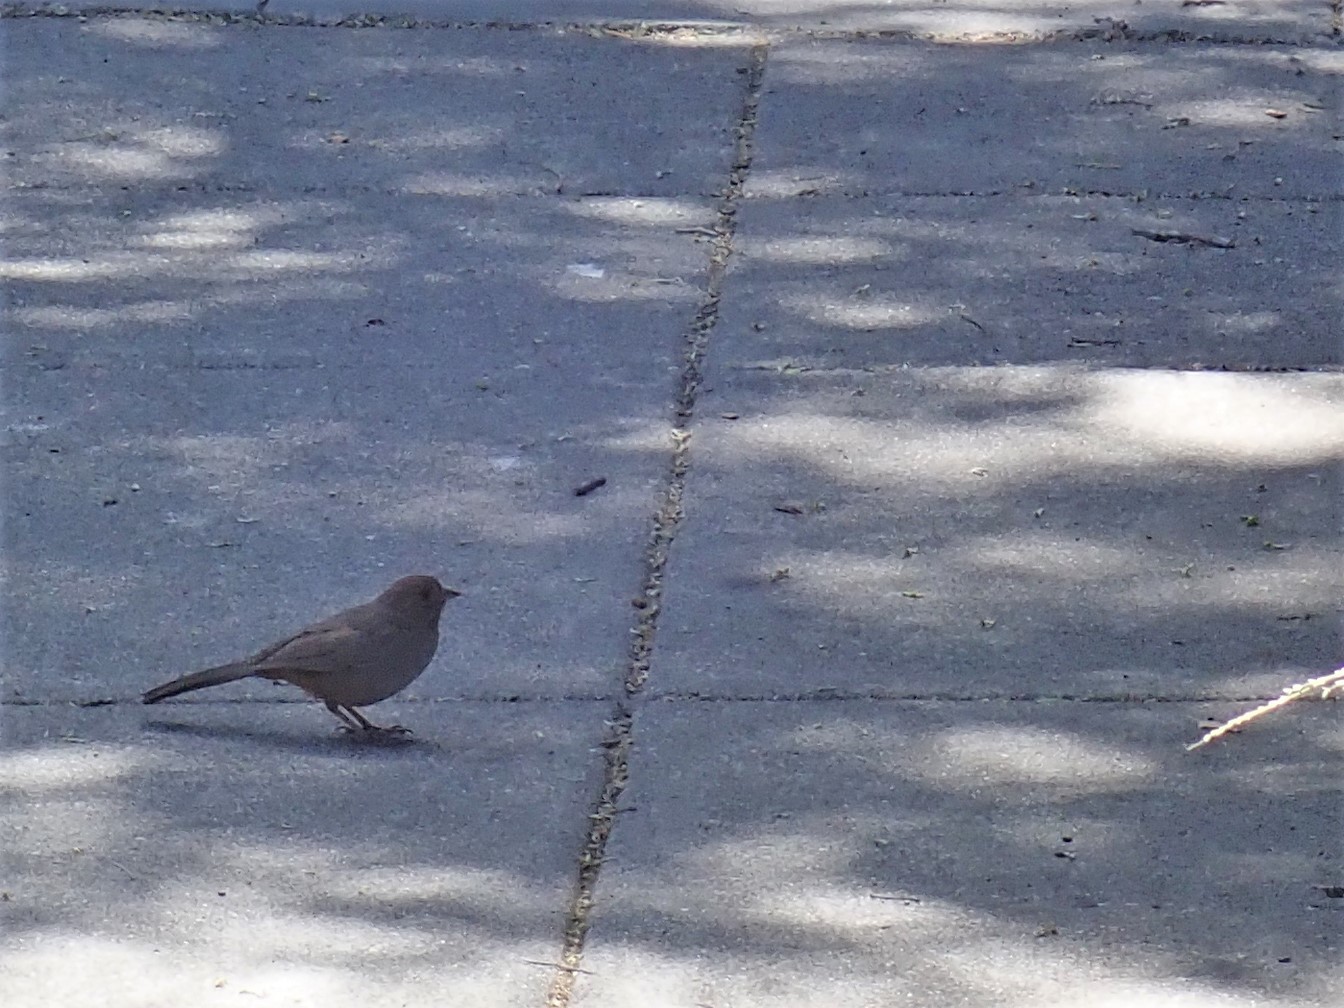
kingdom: Animalia
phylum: Chordata
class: Aves
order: Passeriformes
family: Passerellidae
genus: Melozone
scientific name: Melozone crissalis
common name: California towhee
